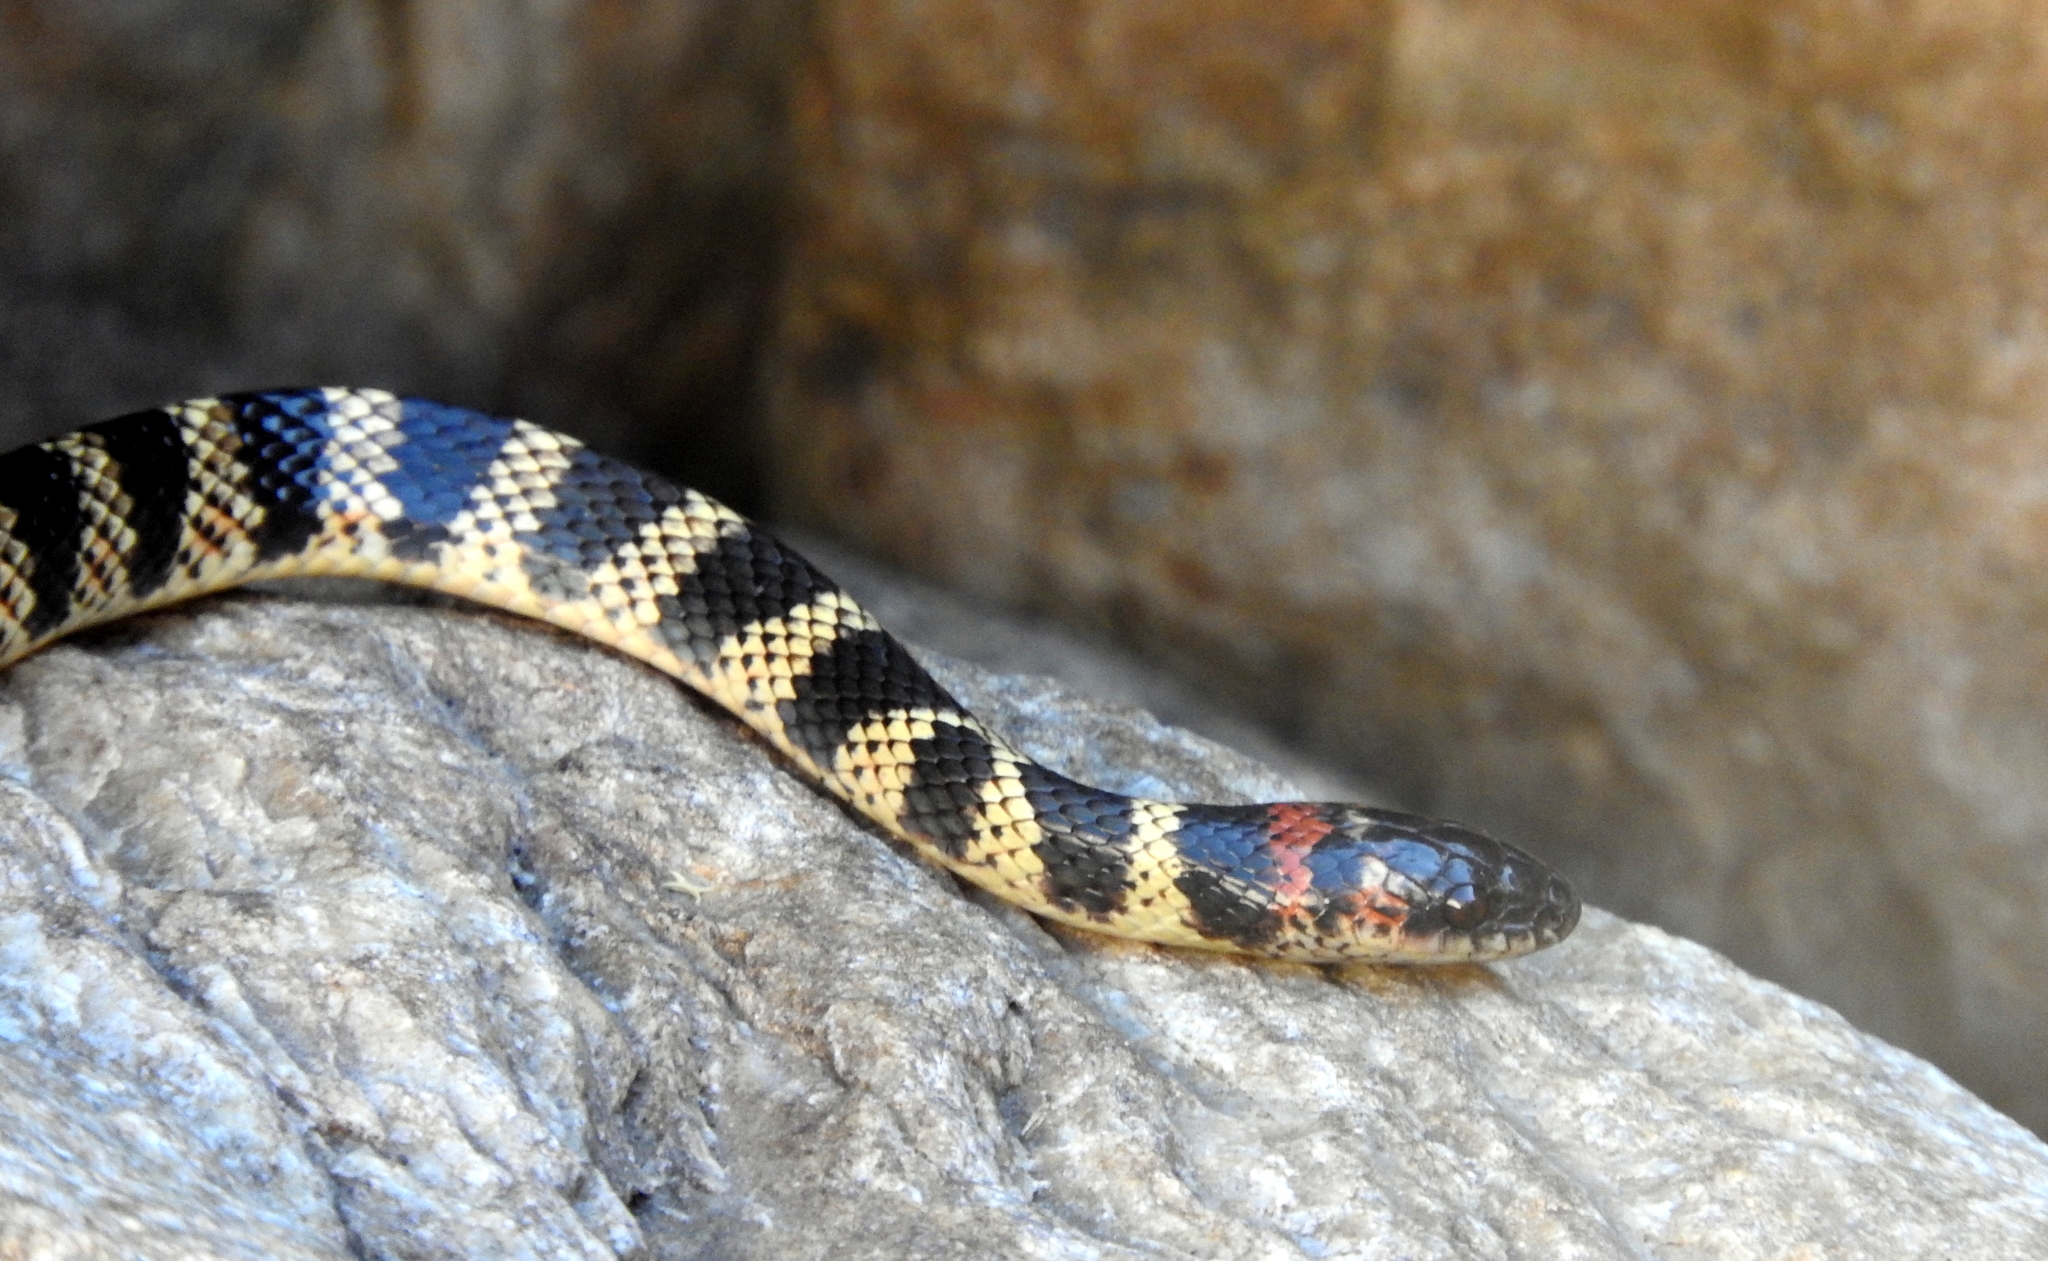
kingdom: Animalia
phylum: Chordata
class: Squamata
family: Colubridae
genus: Oxyrhopus
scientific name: Oxyrhopus rhombifer
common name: Amazon false coral snake
